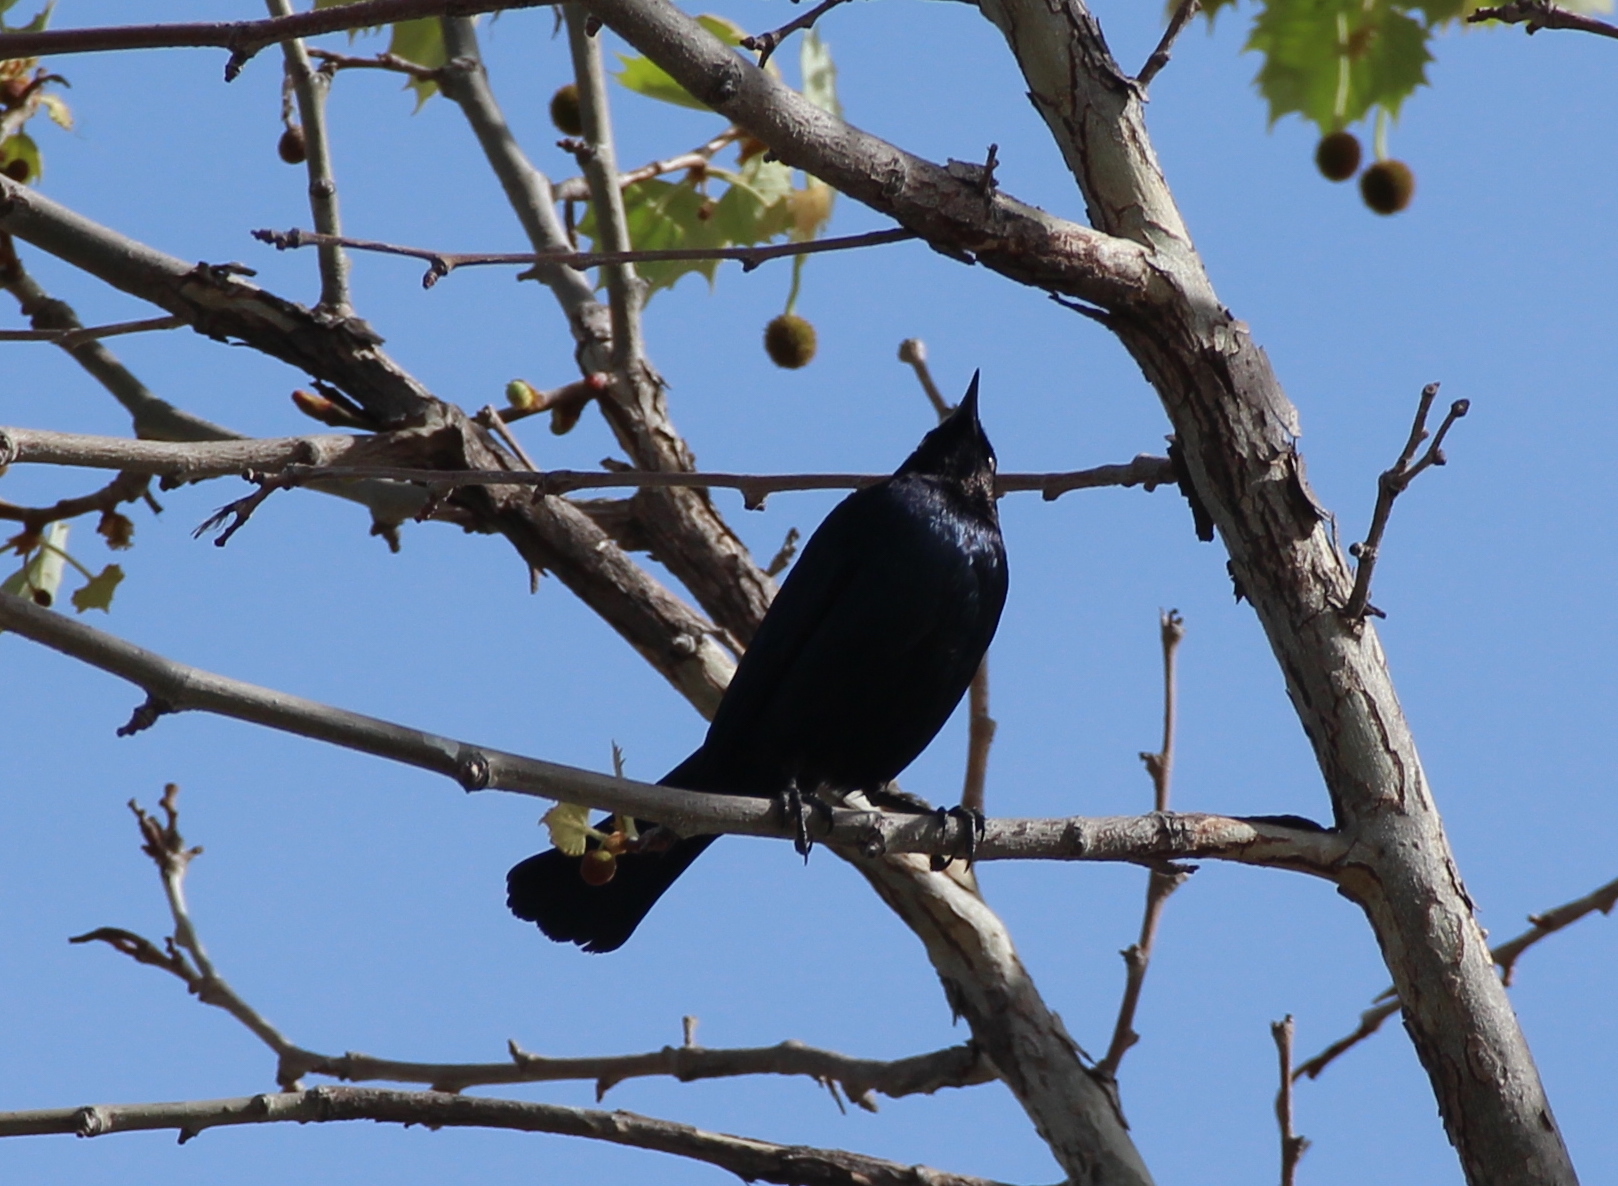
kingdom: Animalia
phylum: Chordata
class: Aves
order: Passeriformes
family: Icteridae
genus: Euphagus
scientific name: Euphagus cyanocephalus
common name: Brewer's blackbird
